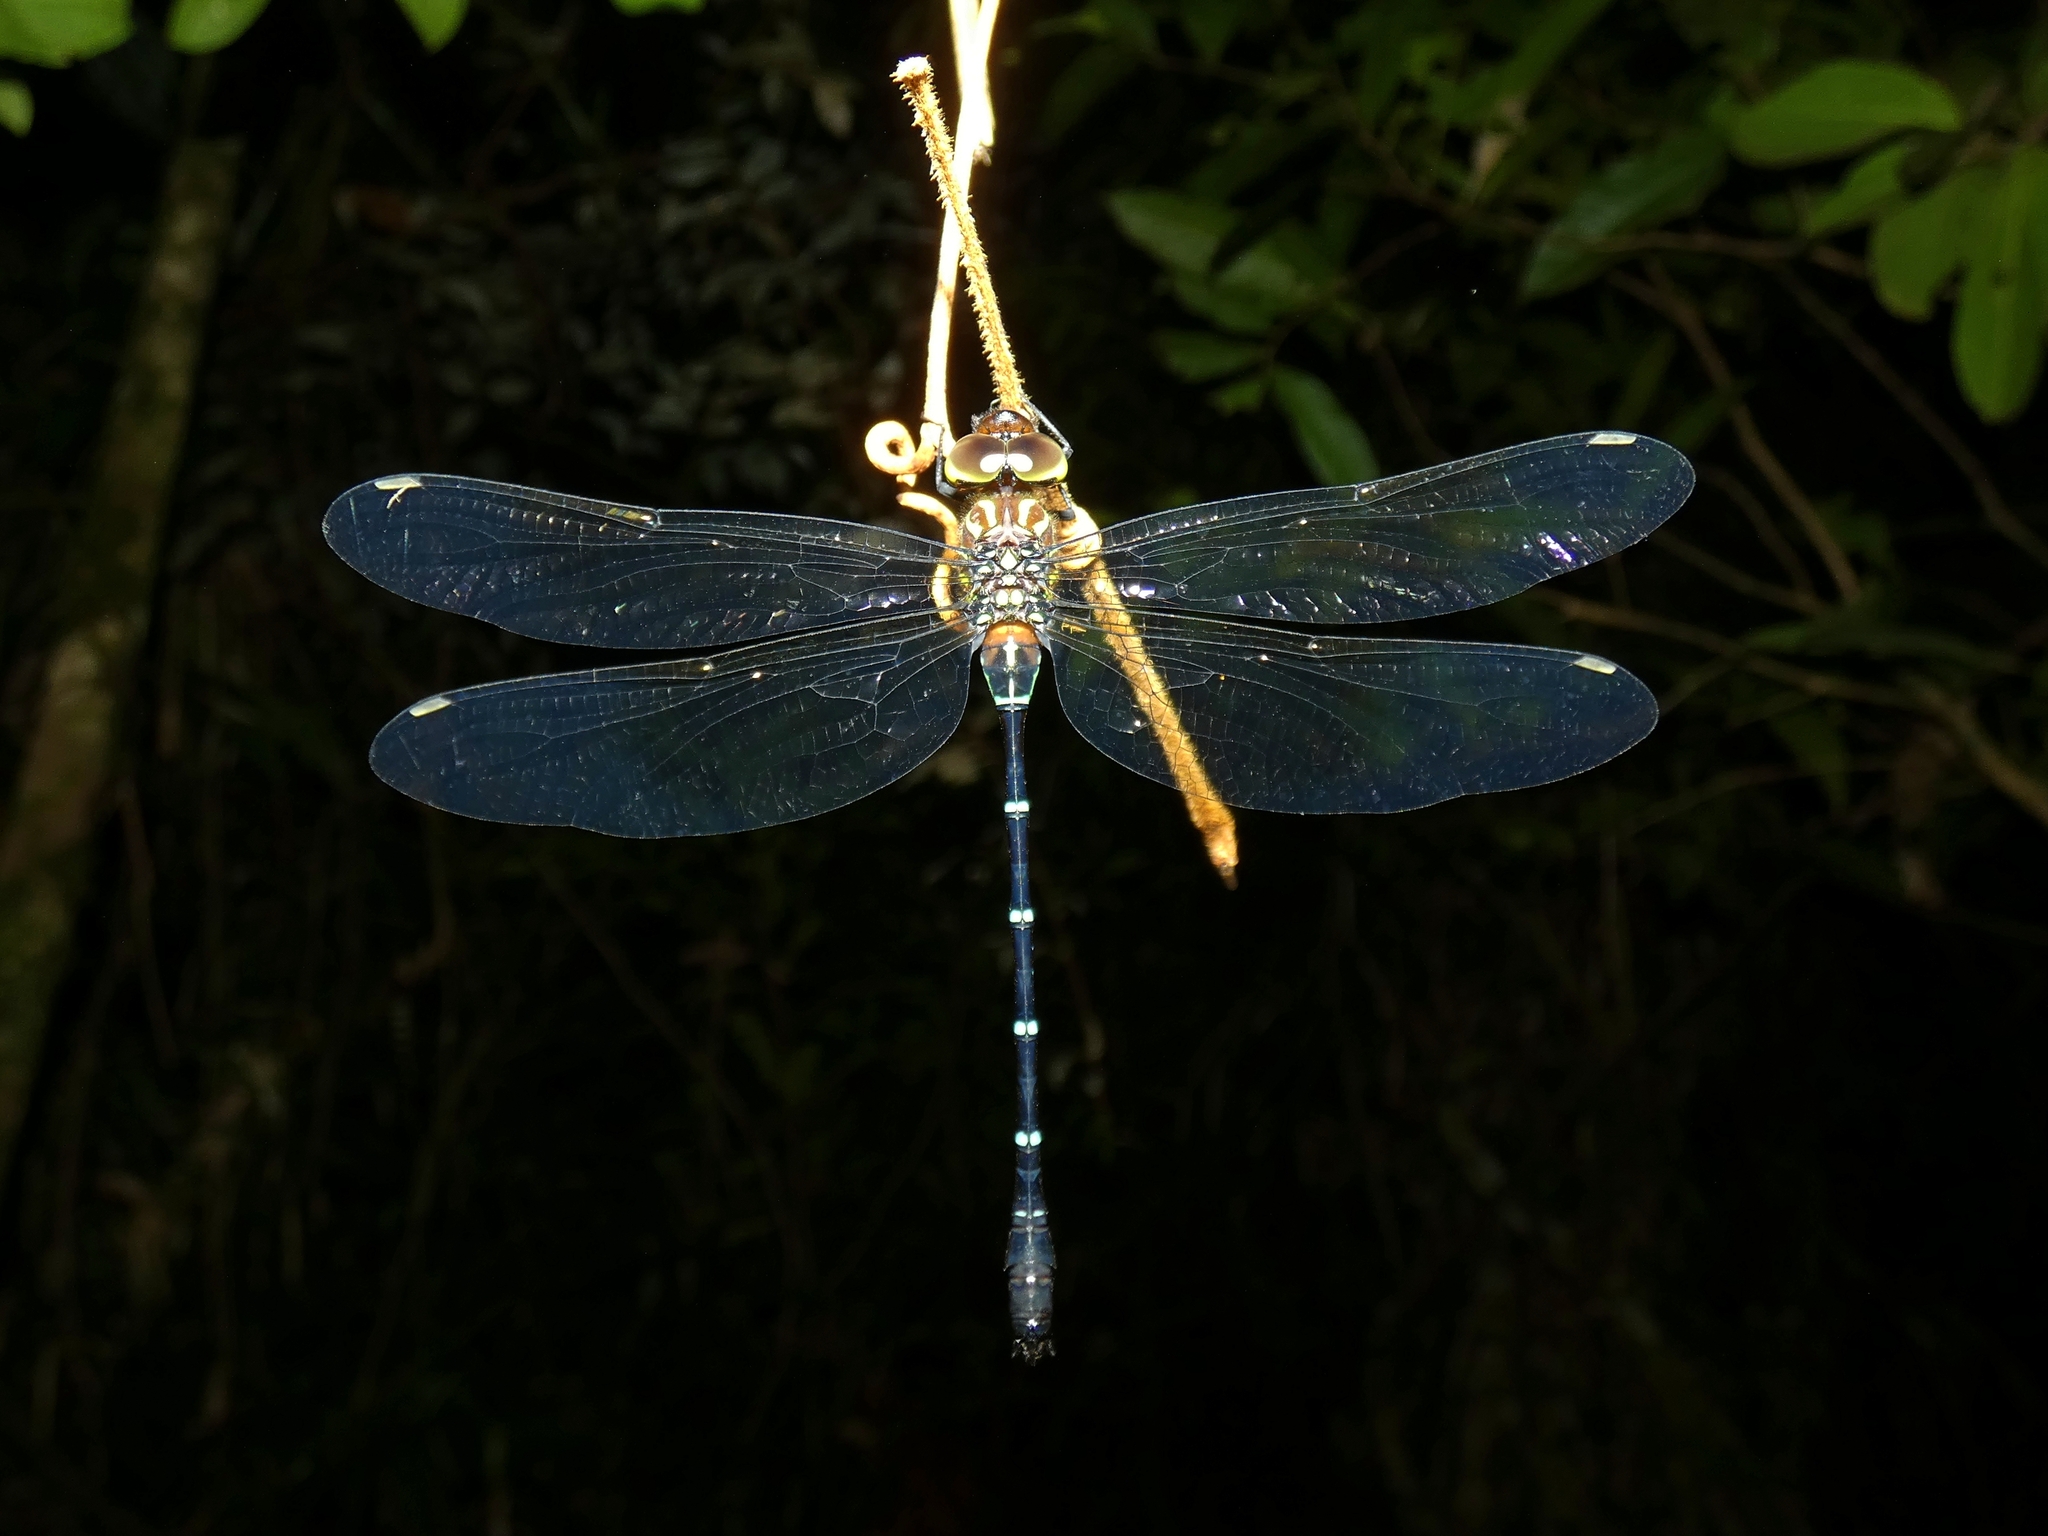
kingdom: Animalia
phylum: Arthropoda
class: Insecta
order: Odonata
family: Aeshnidae
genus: Dromaeschna
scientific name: Dromaeschna forcipata
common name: Green-striped darner
